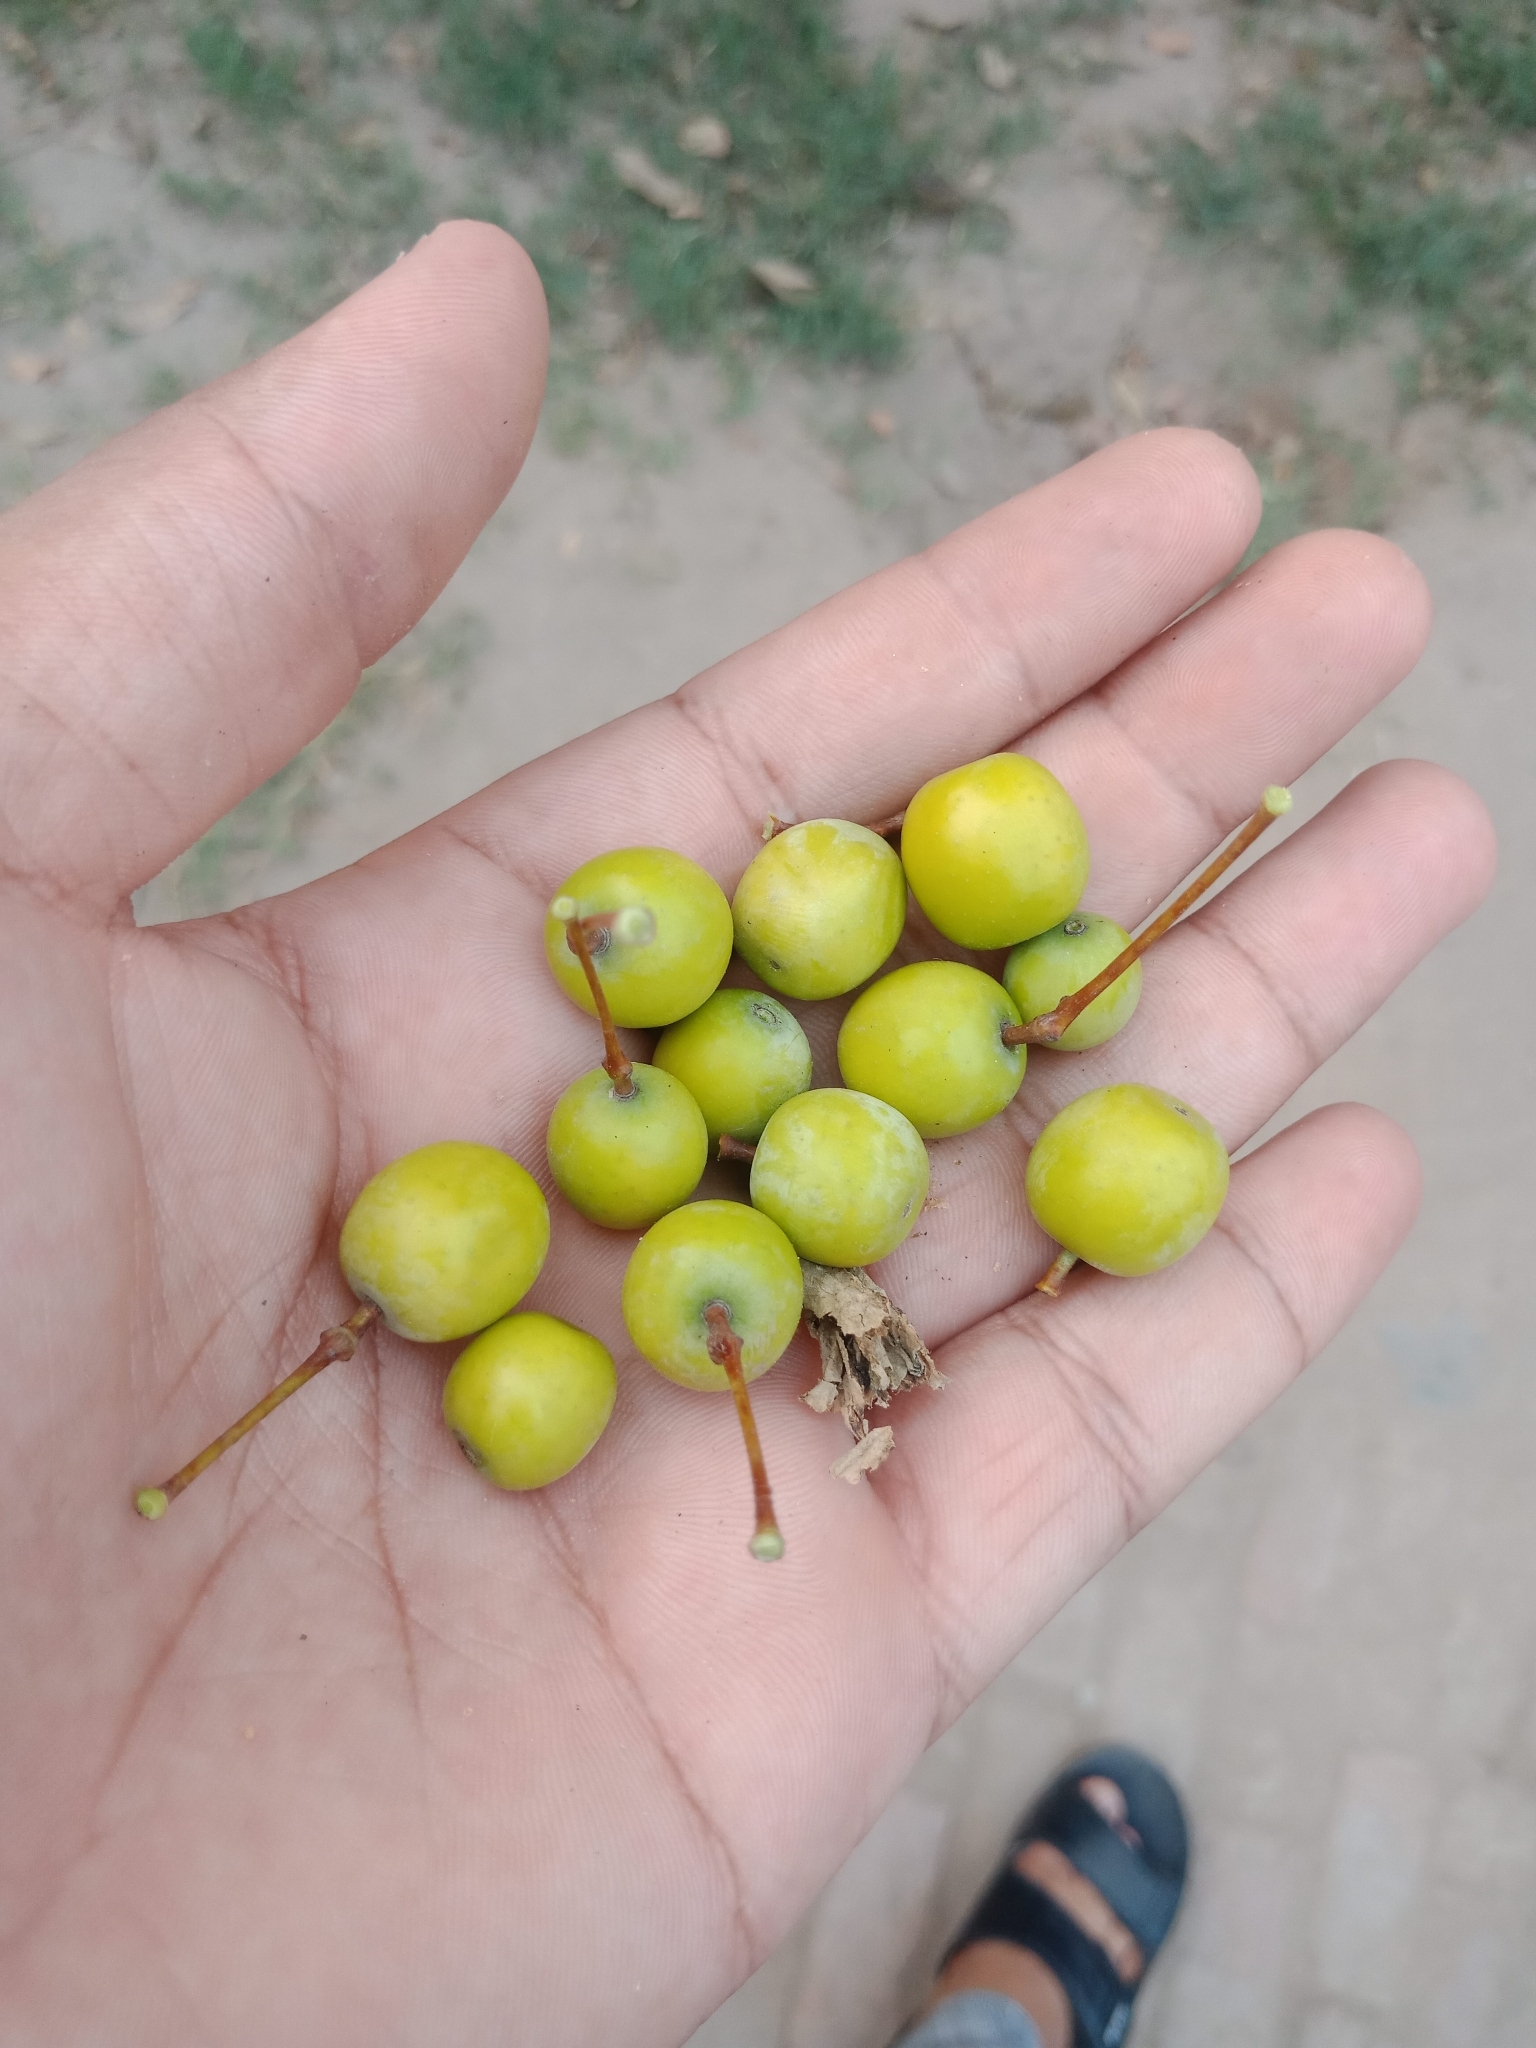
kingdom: Plantae
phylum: Tracheophyta
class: Magnoliopsida
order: Sapindales
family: Meliaceae
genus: Melia
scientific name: Melia azedarach
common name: Chinaberrytree
